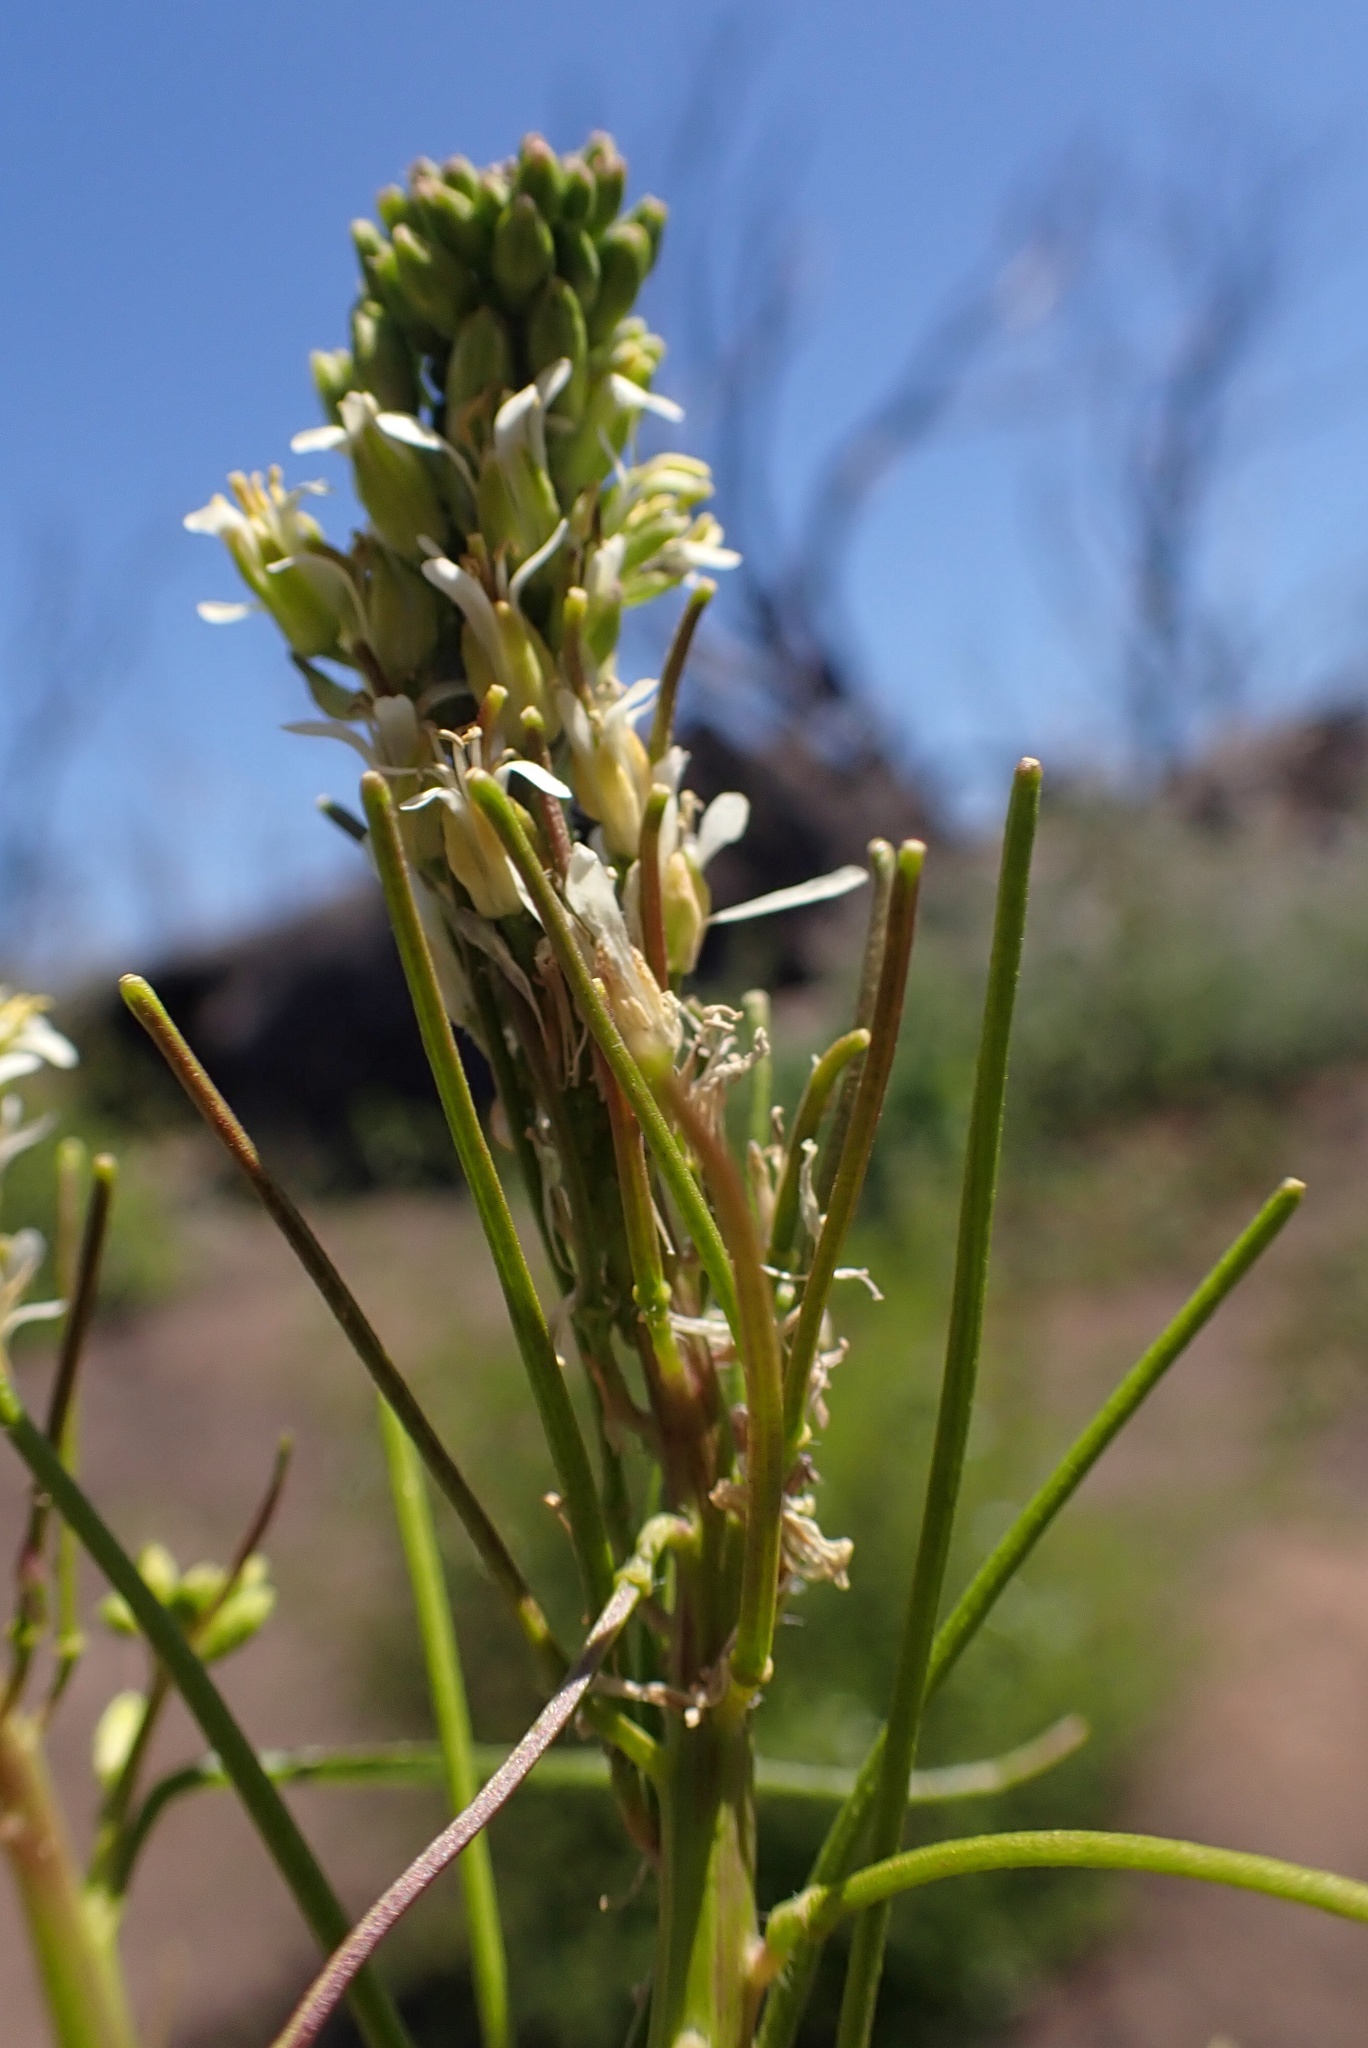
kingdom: Plantae
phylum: Tracheophyta
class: Magnoliopsida
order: Brassicales
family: Brassicaceae
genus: Streptanthus
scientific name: Streptanthus lasiophyllus
